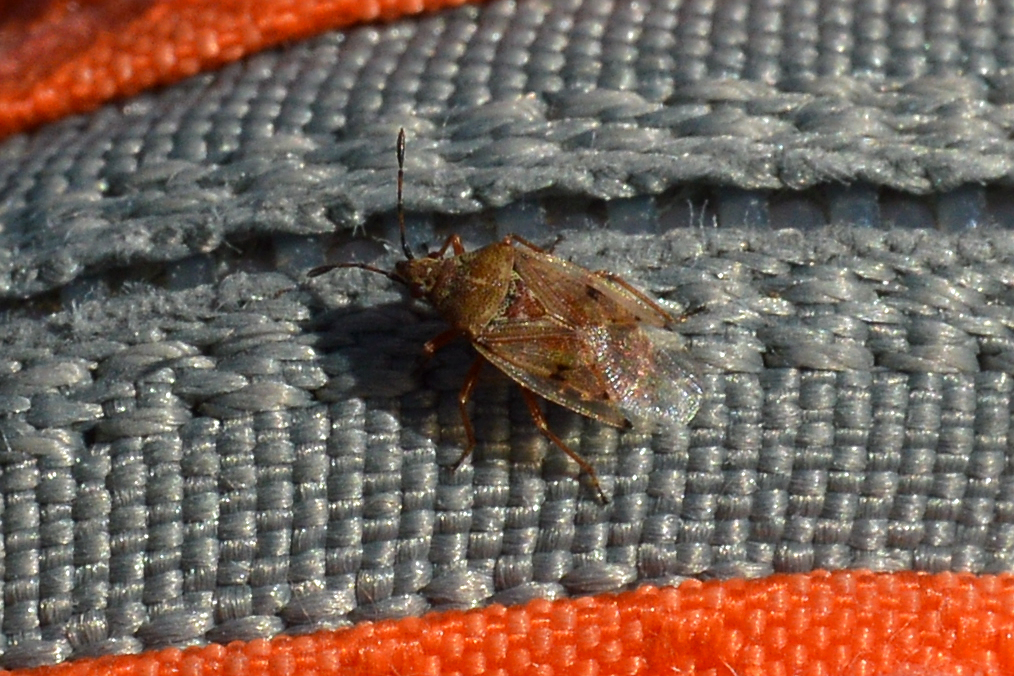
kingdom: Animalia
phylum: Arthropoda
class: Insecta
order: Hemiptera
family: Lygaeidae
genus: Kleidocerys
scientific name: Kleidocerys resedae
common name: Birch catkin bug
